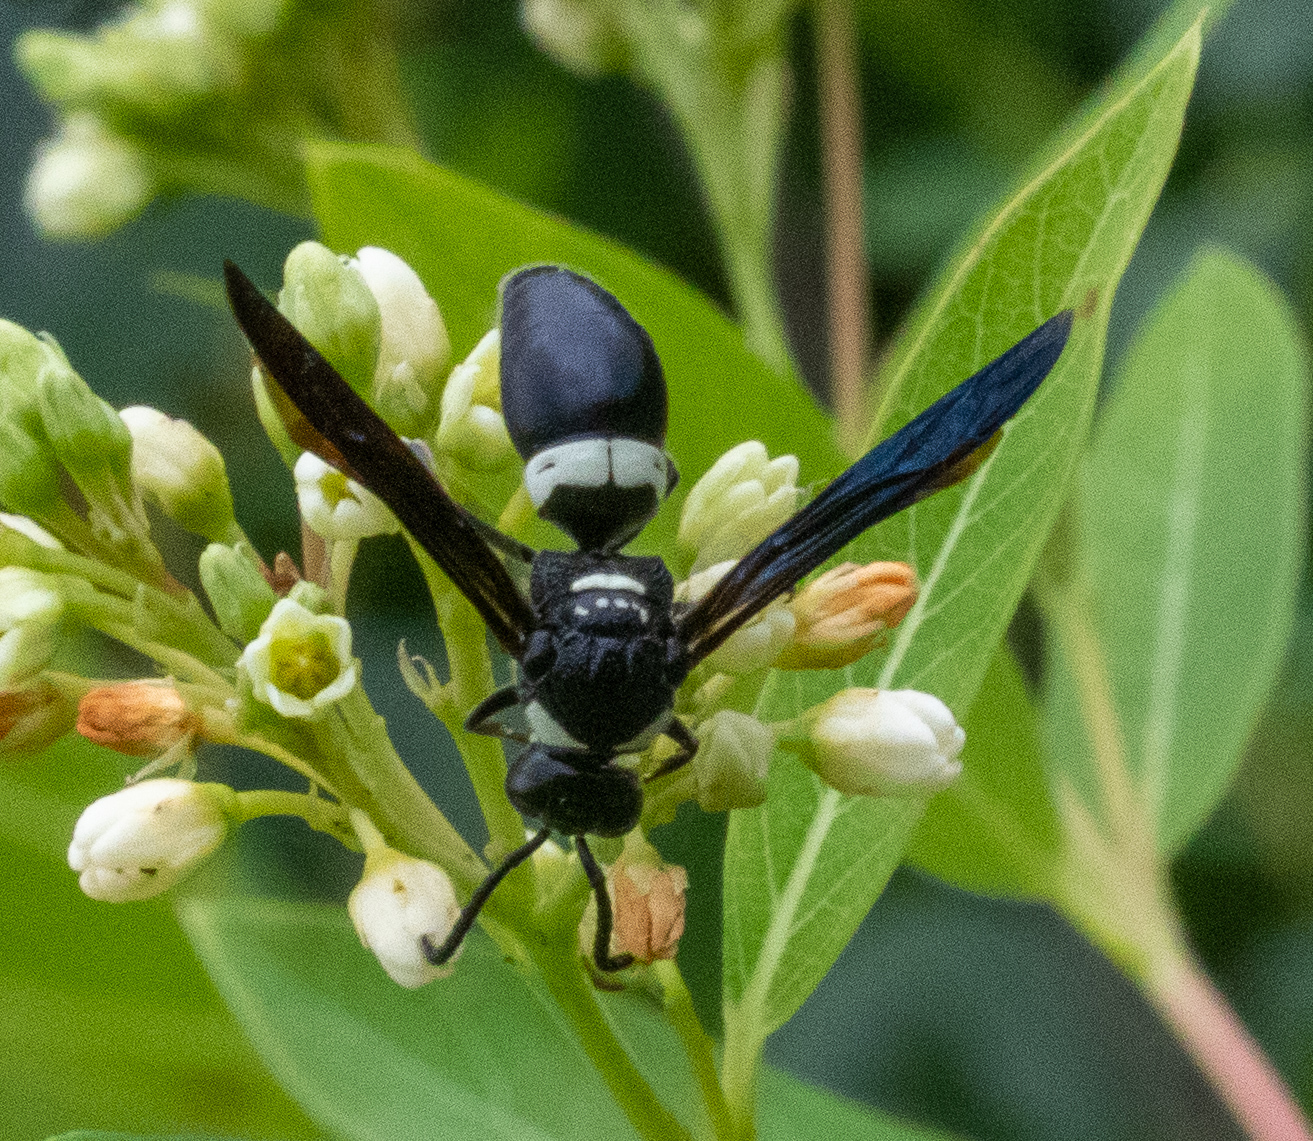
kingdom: Animalia
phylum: Arthropoda
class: Insecta
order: Hymenoptera
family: Eumenidae
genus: Monobia
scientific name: Monobia quadridens
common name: Four-toothed mason wasp
